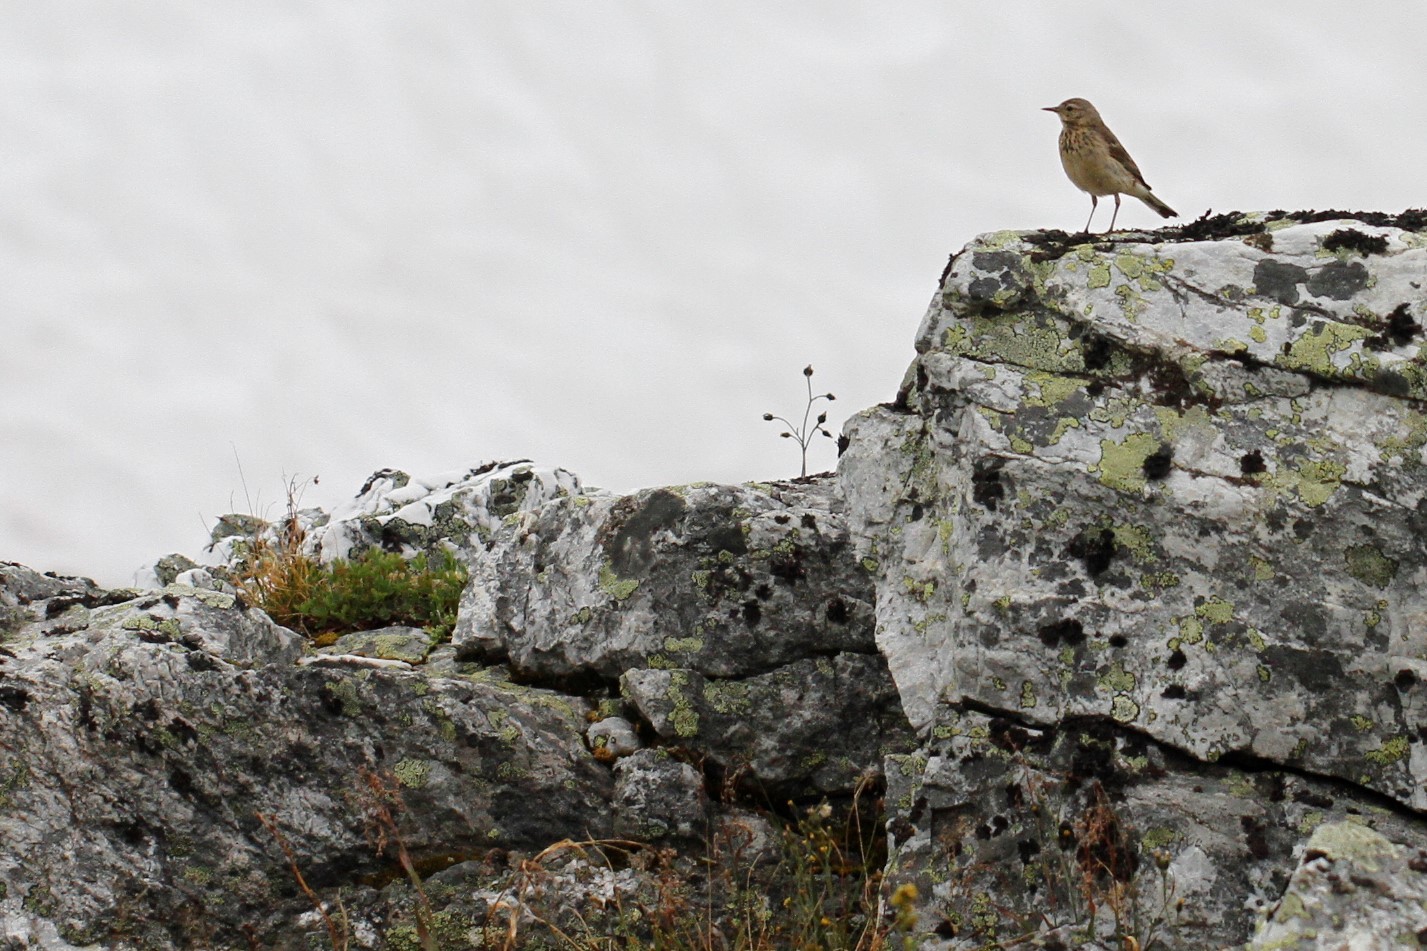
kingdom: Animalia
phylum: Chordata
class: Aves
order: Passeriformes
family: Motacillidae
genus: Anthus
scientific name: Anthus rubescens
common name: Buff-bellied pipit
